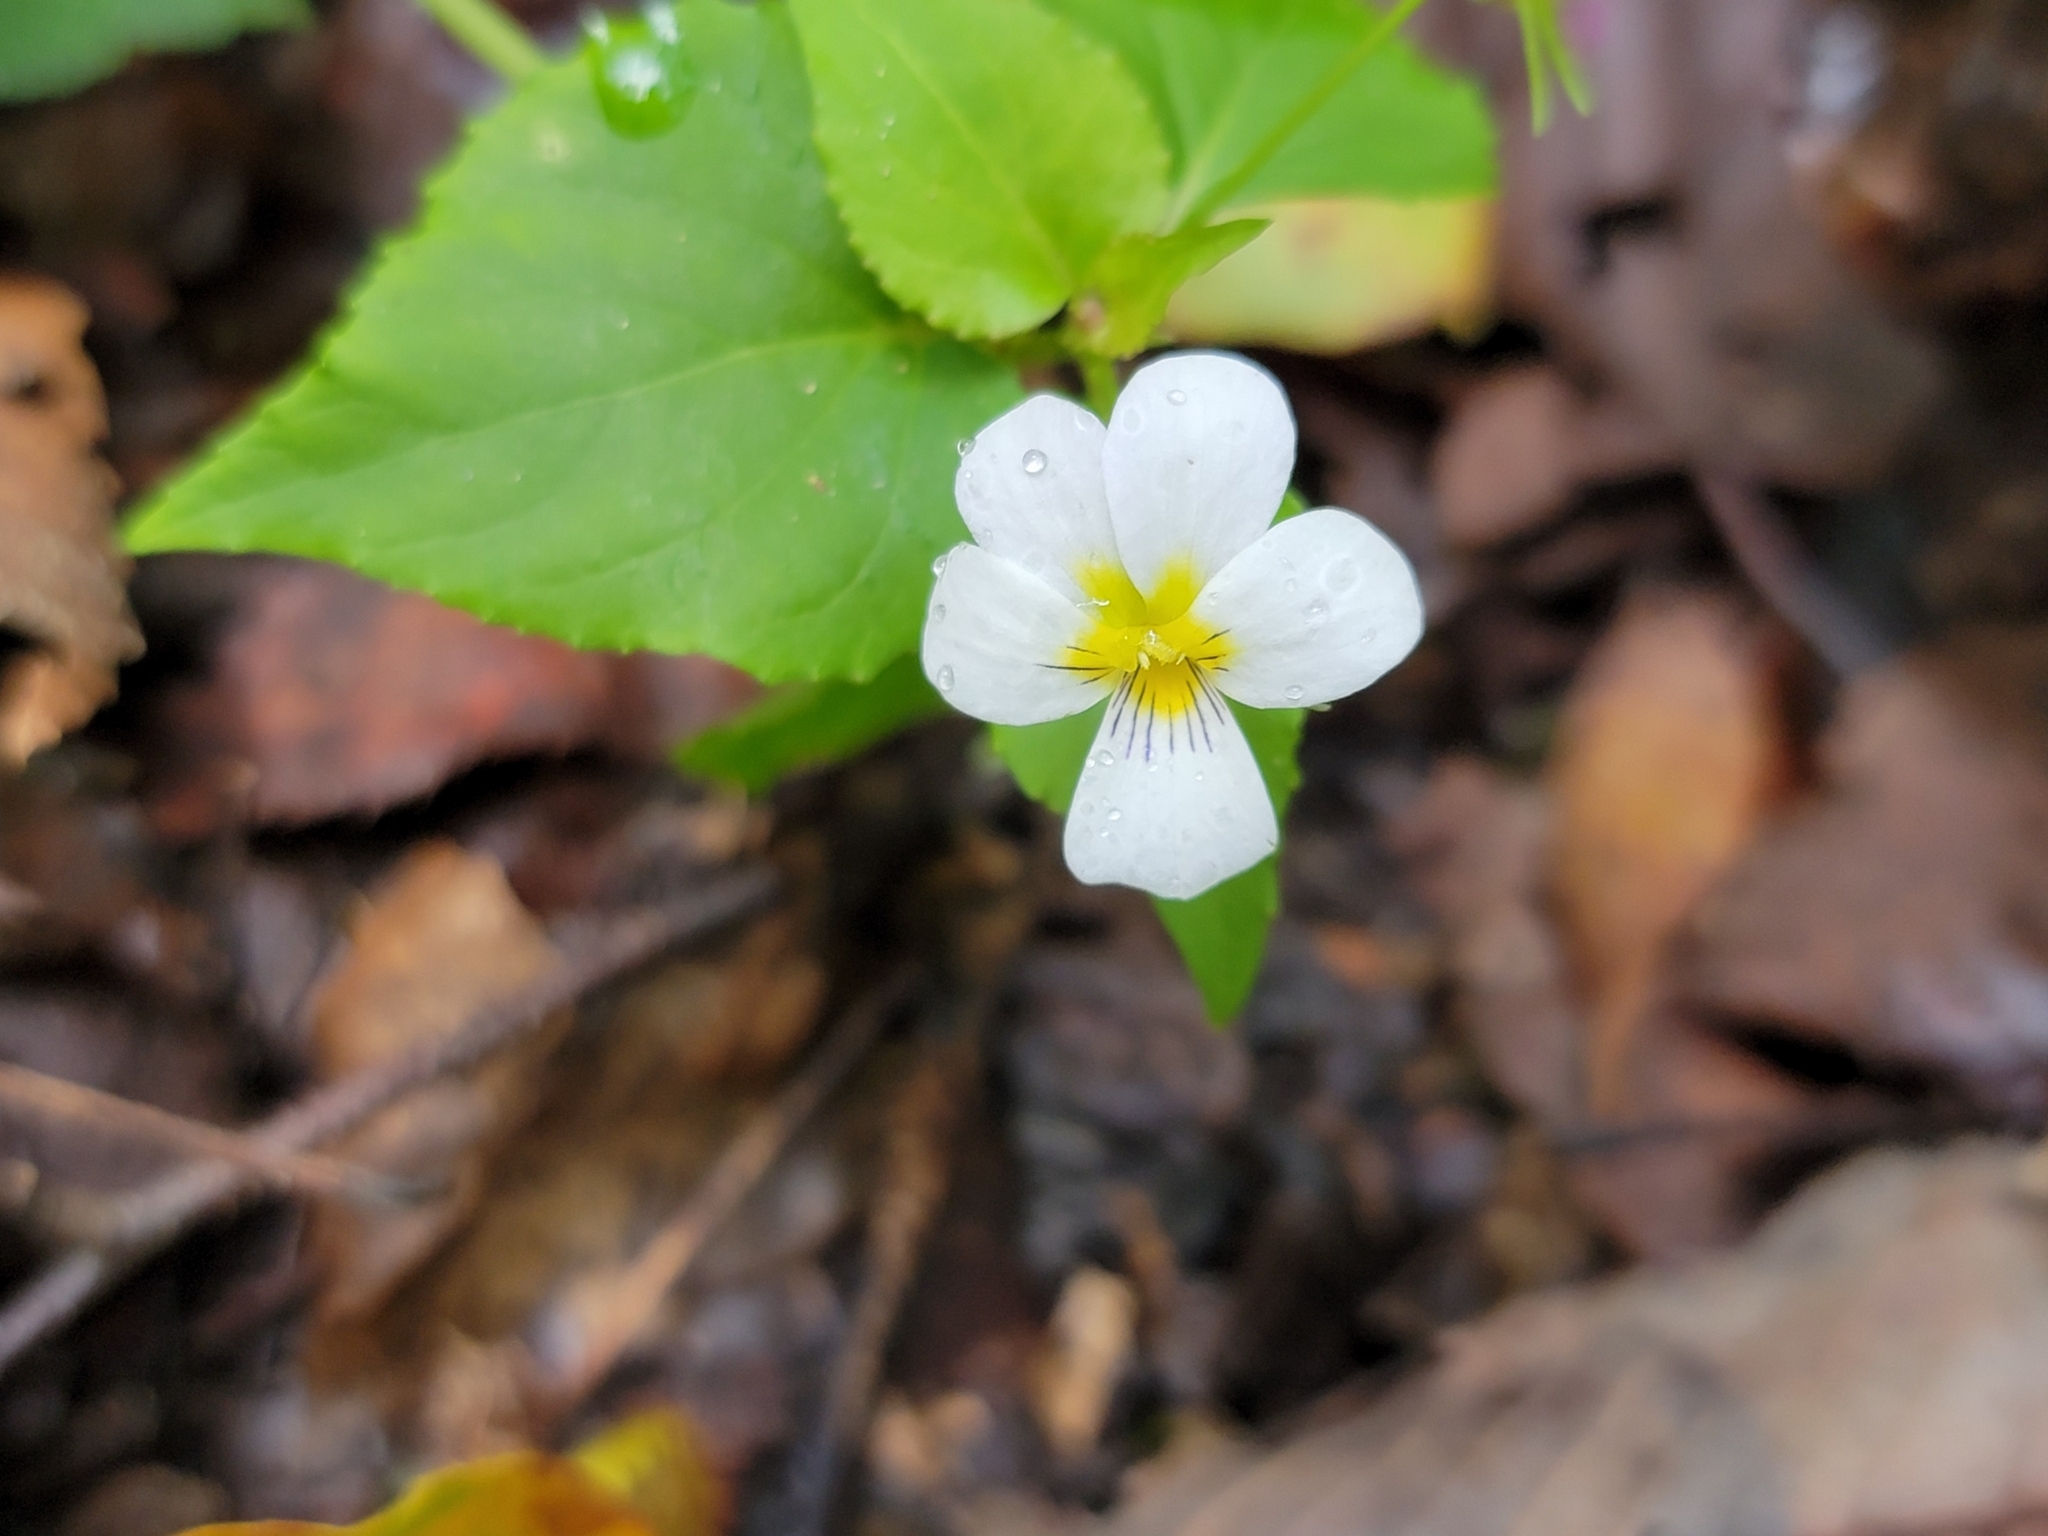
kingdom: Plantae
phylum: Tracheophyta
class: Magnoliopsida
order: Malpighiales
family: Violaceae
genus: Viola
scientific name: Viola canadensis
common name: Canada violet
